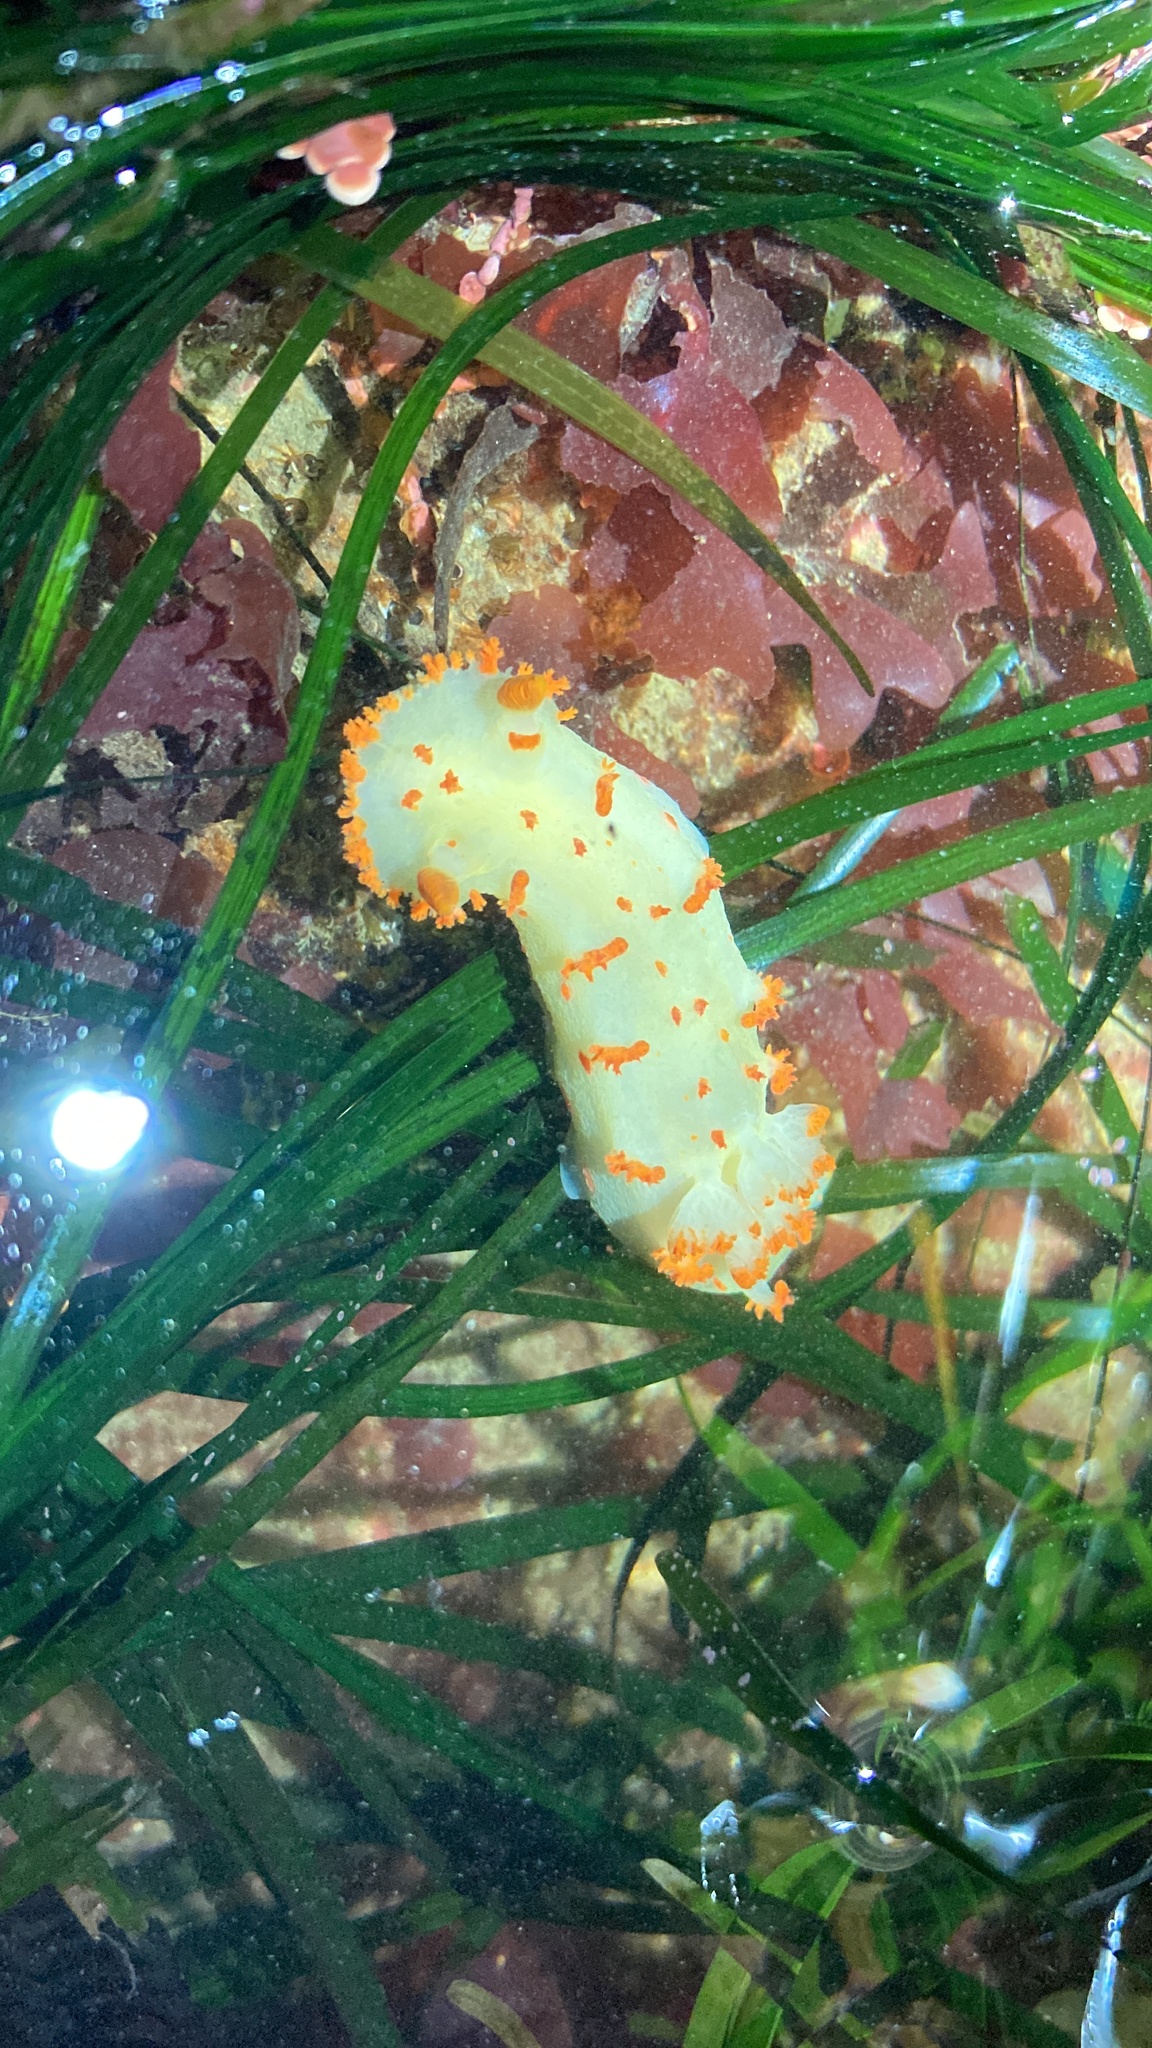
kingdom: Animalia
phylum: Mollusca
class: Gastropoda
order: Nudibranchia
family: Polyceridae
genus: Triopha
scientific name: Triopha modesta
